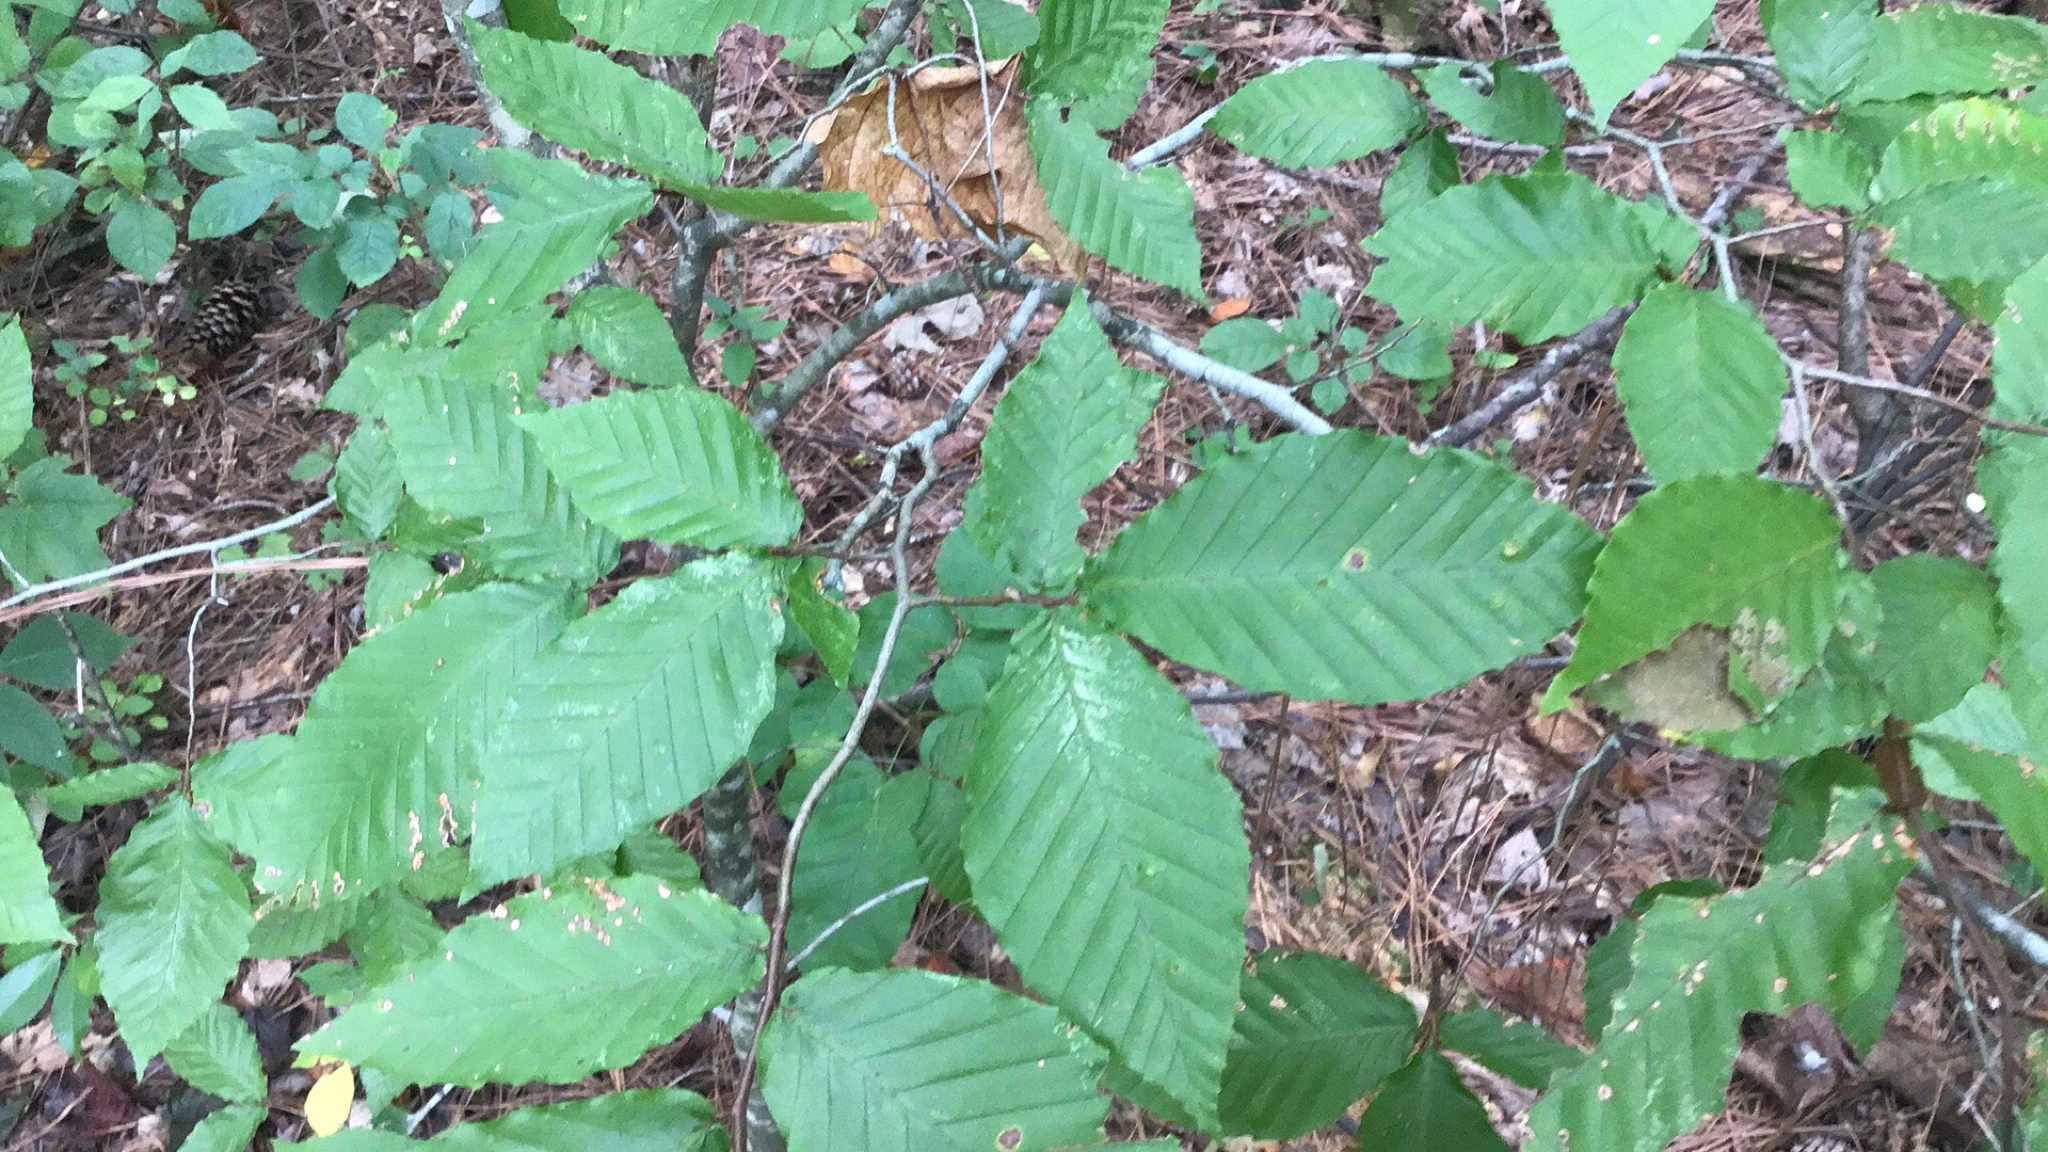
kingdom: Plantae
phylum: Tracheophyta
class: Magnoliopsida
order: Fagales
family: Fagaceae
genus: Fagus
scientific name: Fagus grandifolia
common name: American beech
